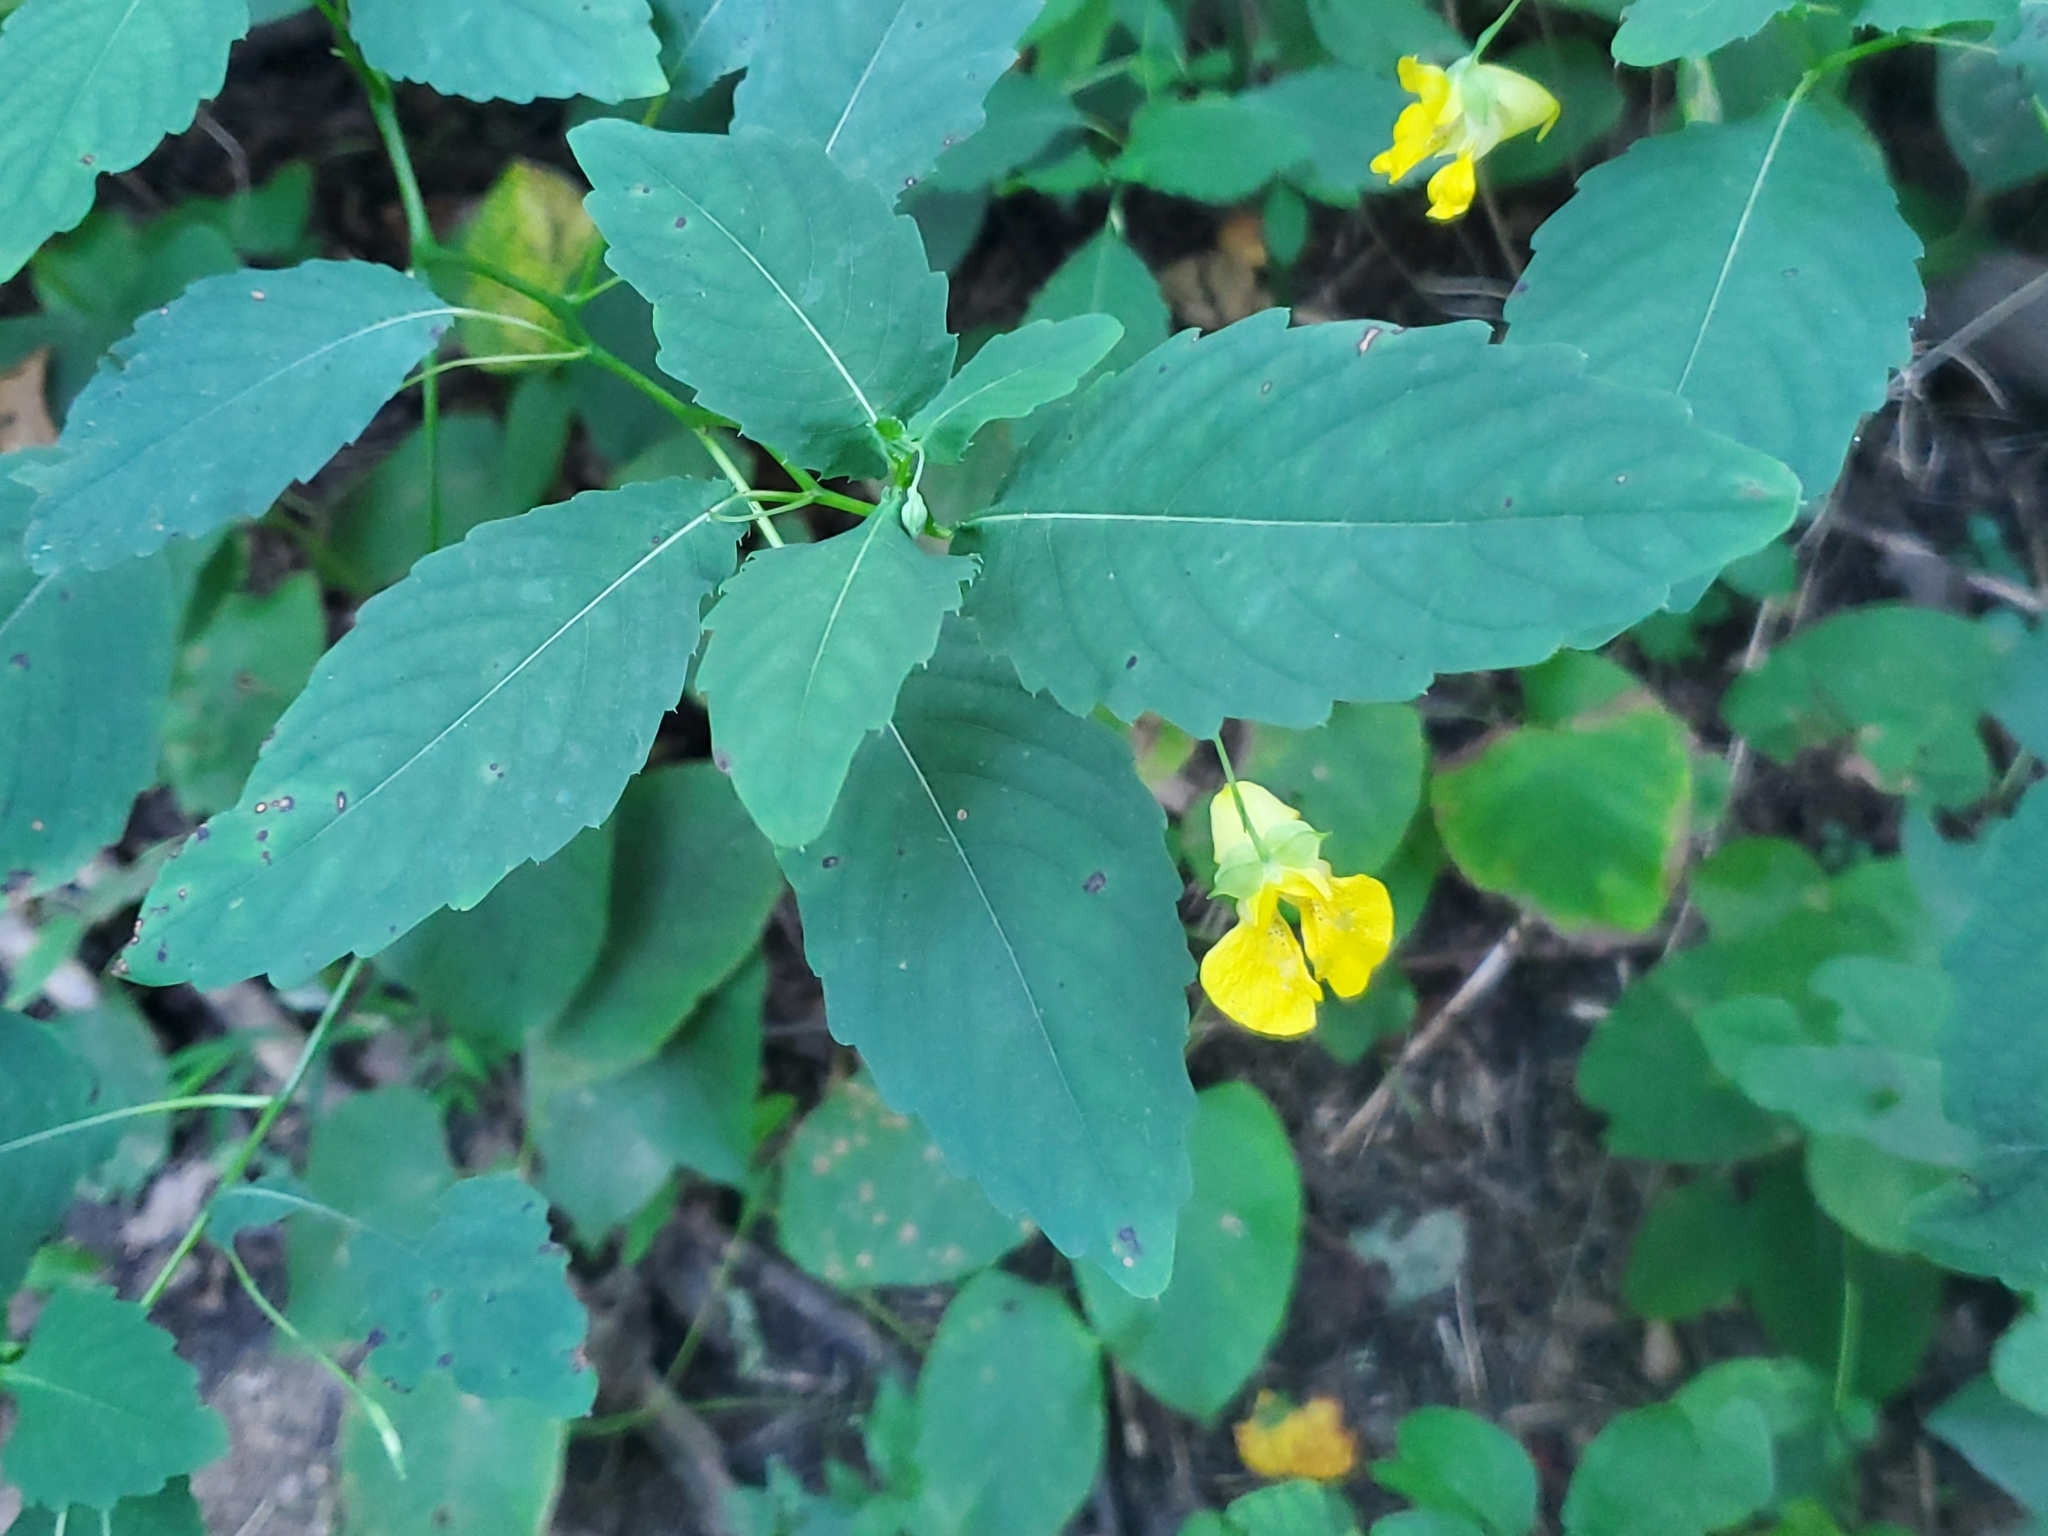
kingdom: Plantae
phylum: Tracheophyta
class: Magnoliopsida
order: Ericales
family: Balsaminaceae
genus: Impatiens
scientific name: Impatiens pallida
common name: Pale snapweed
